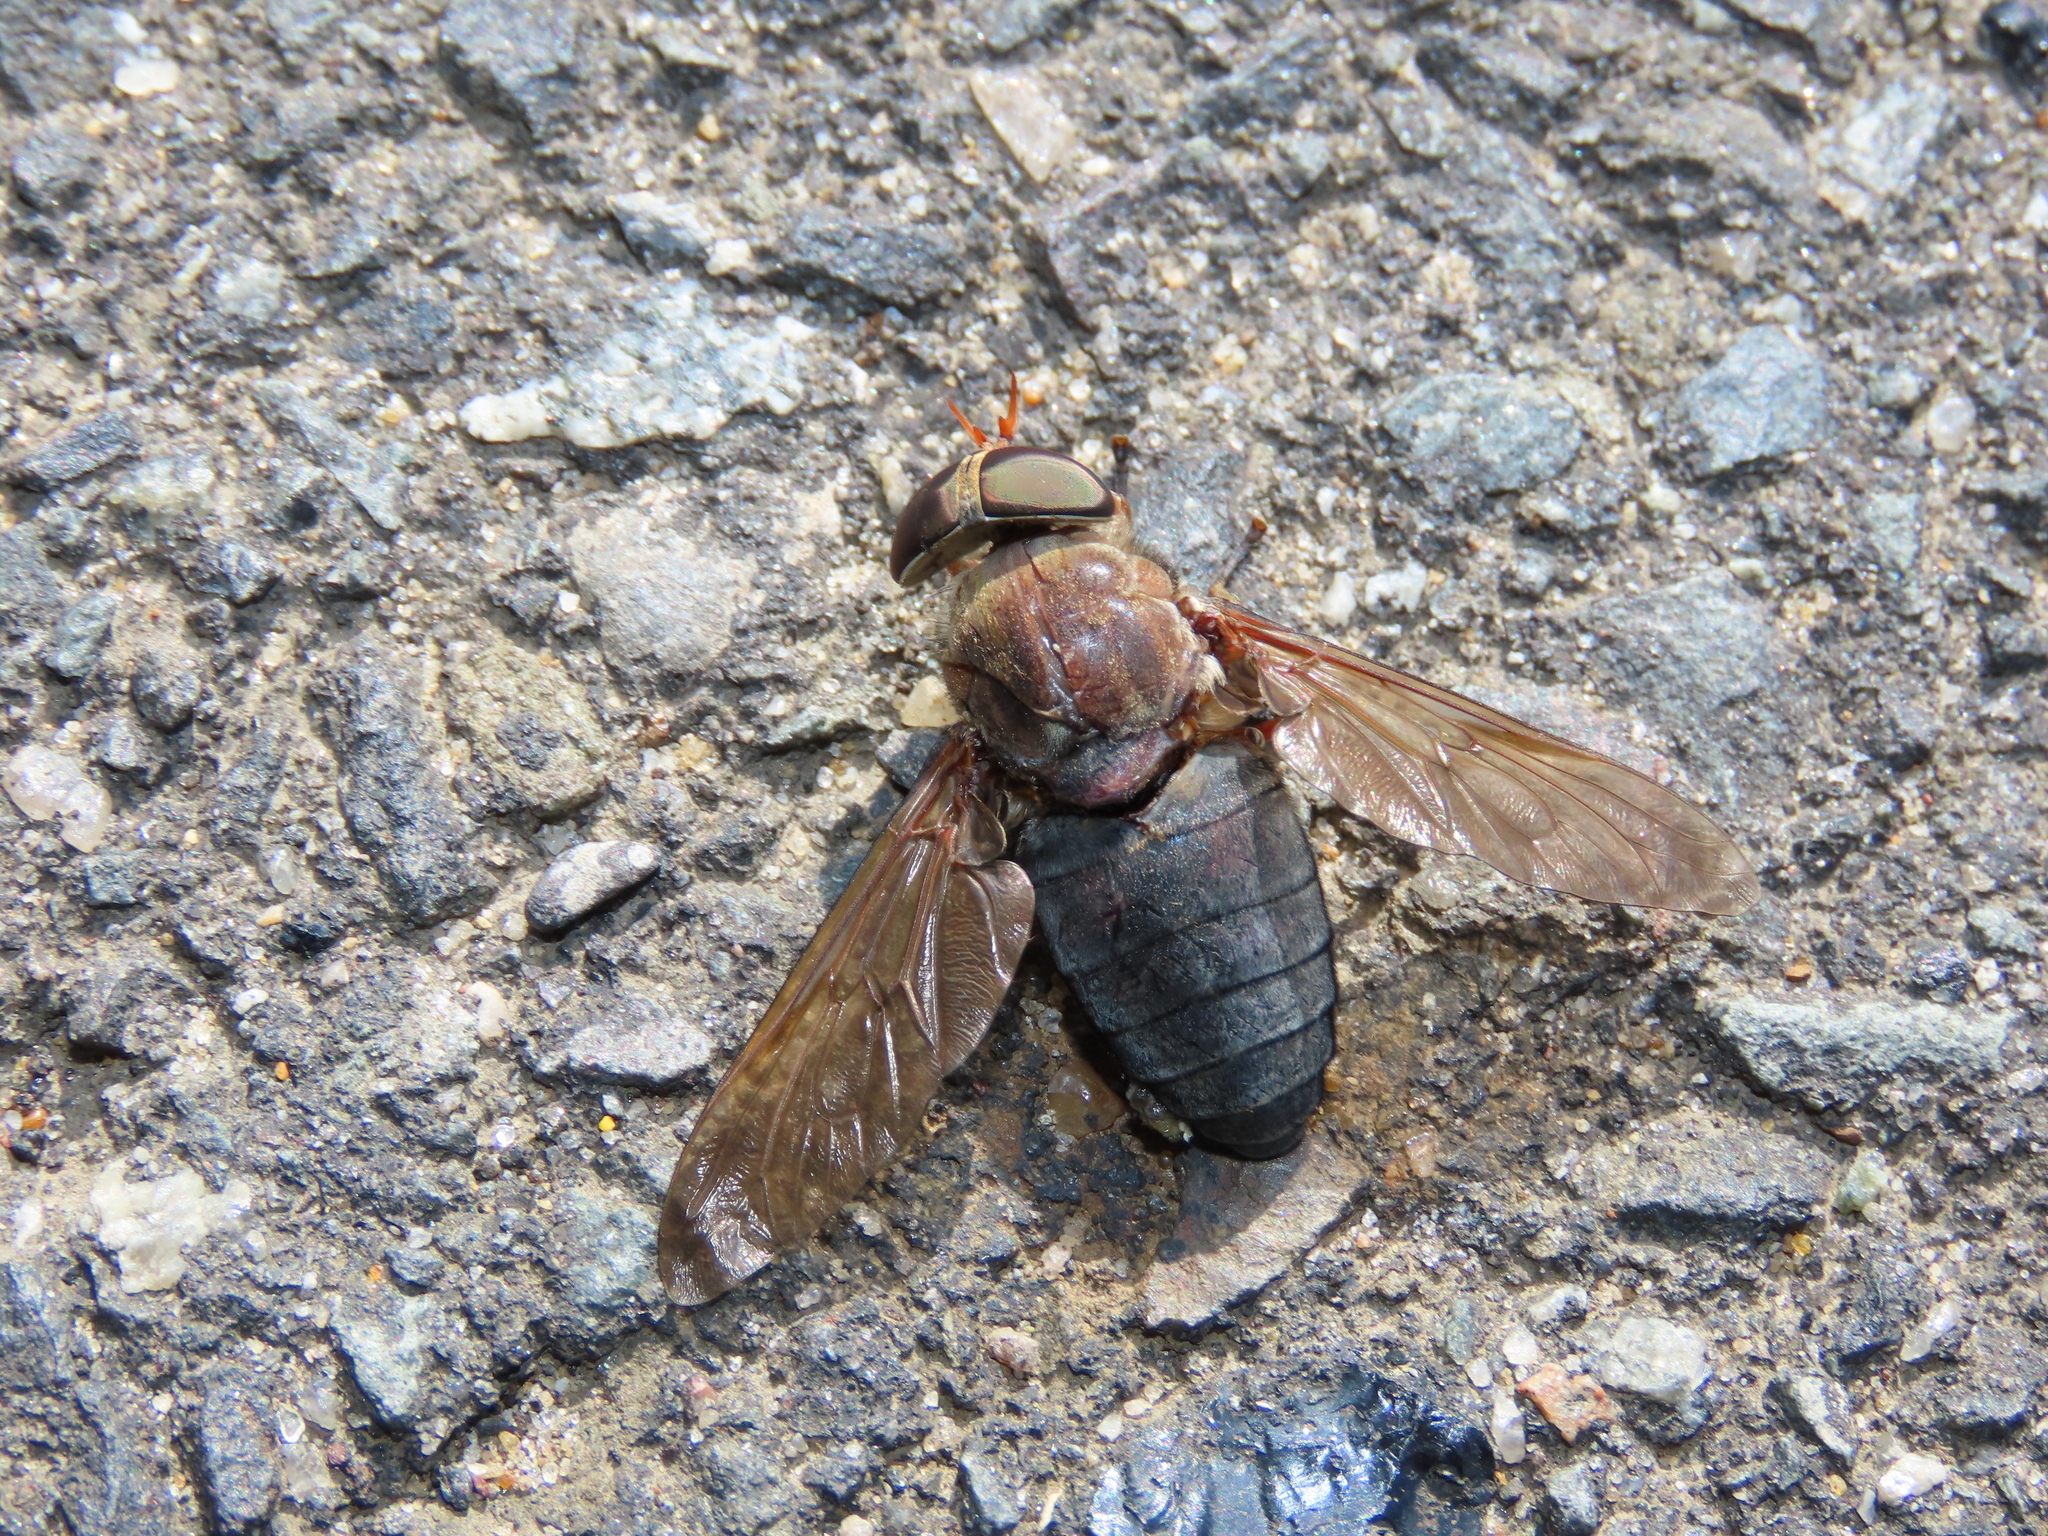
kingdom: Animalia
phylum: Arthropoda
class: Insecta
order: Diptera
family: Tabanidae
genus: Tabanus
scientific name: Tabanus calens
